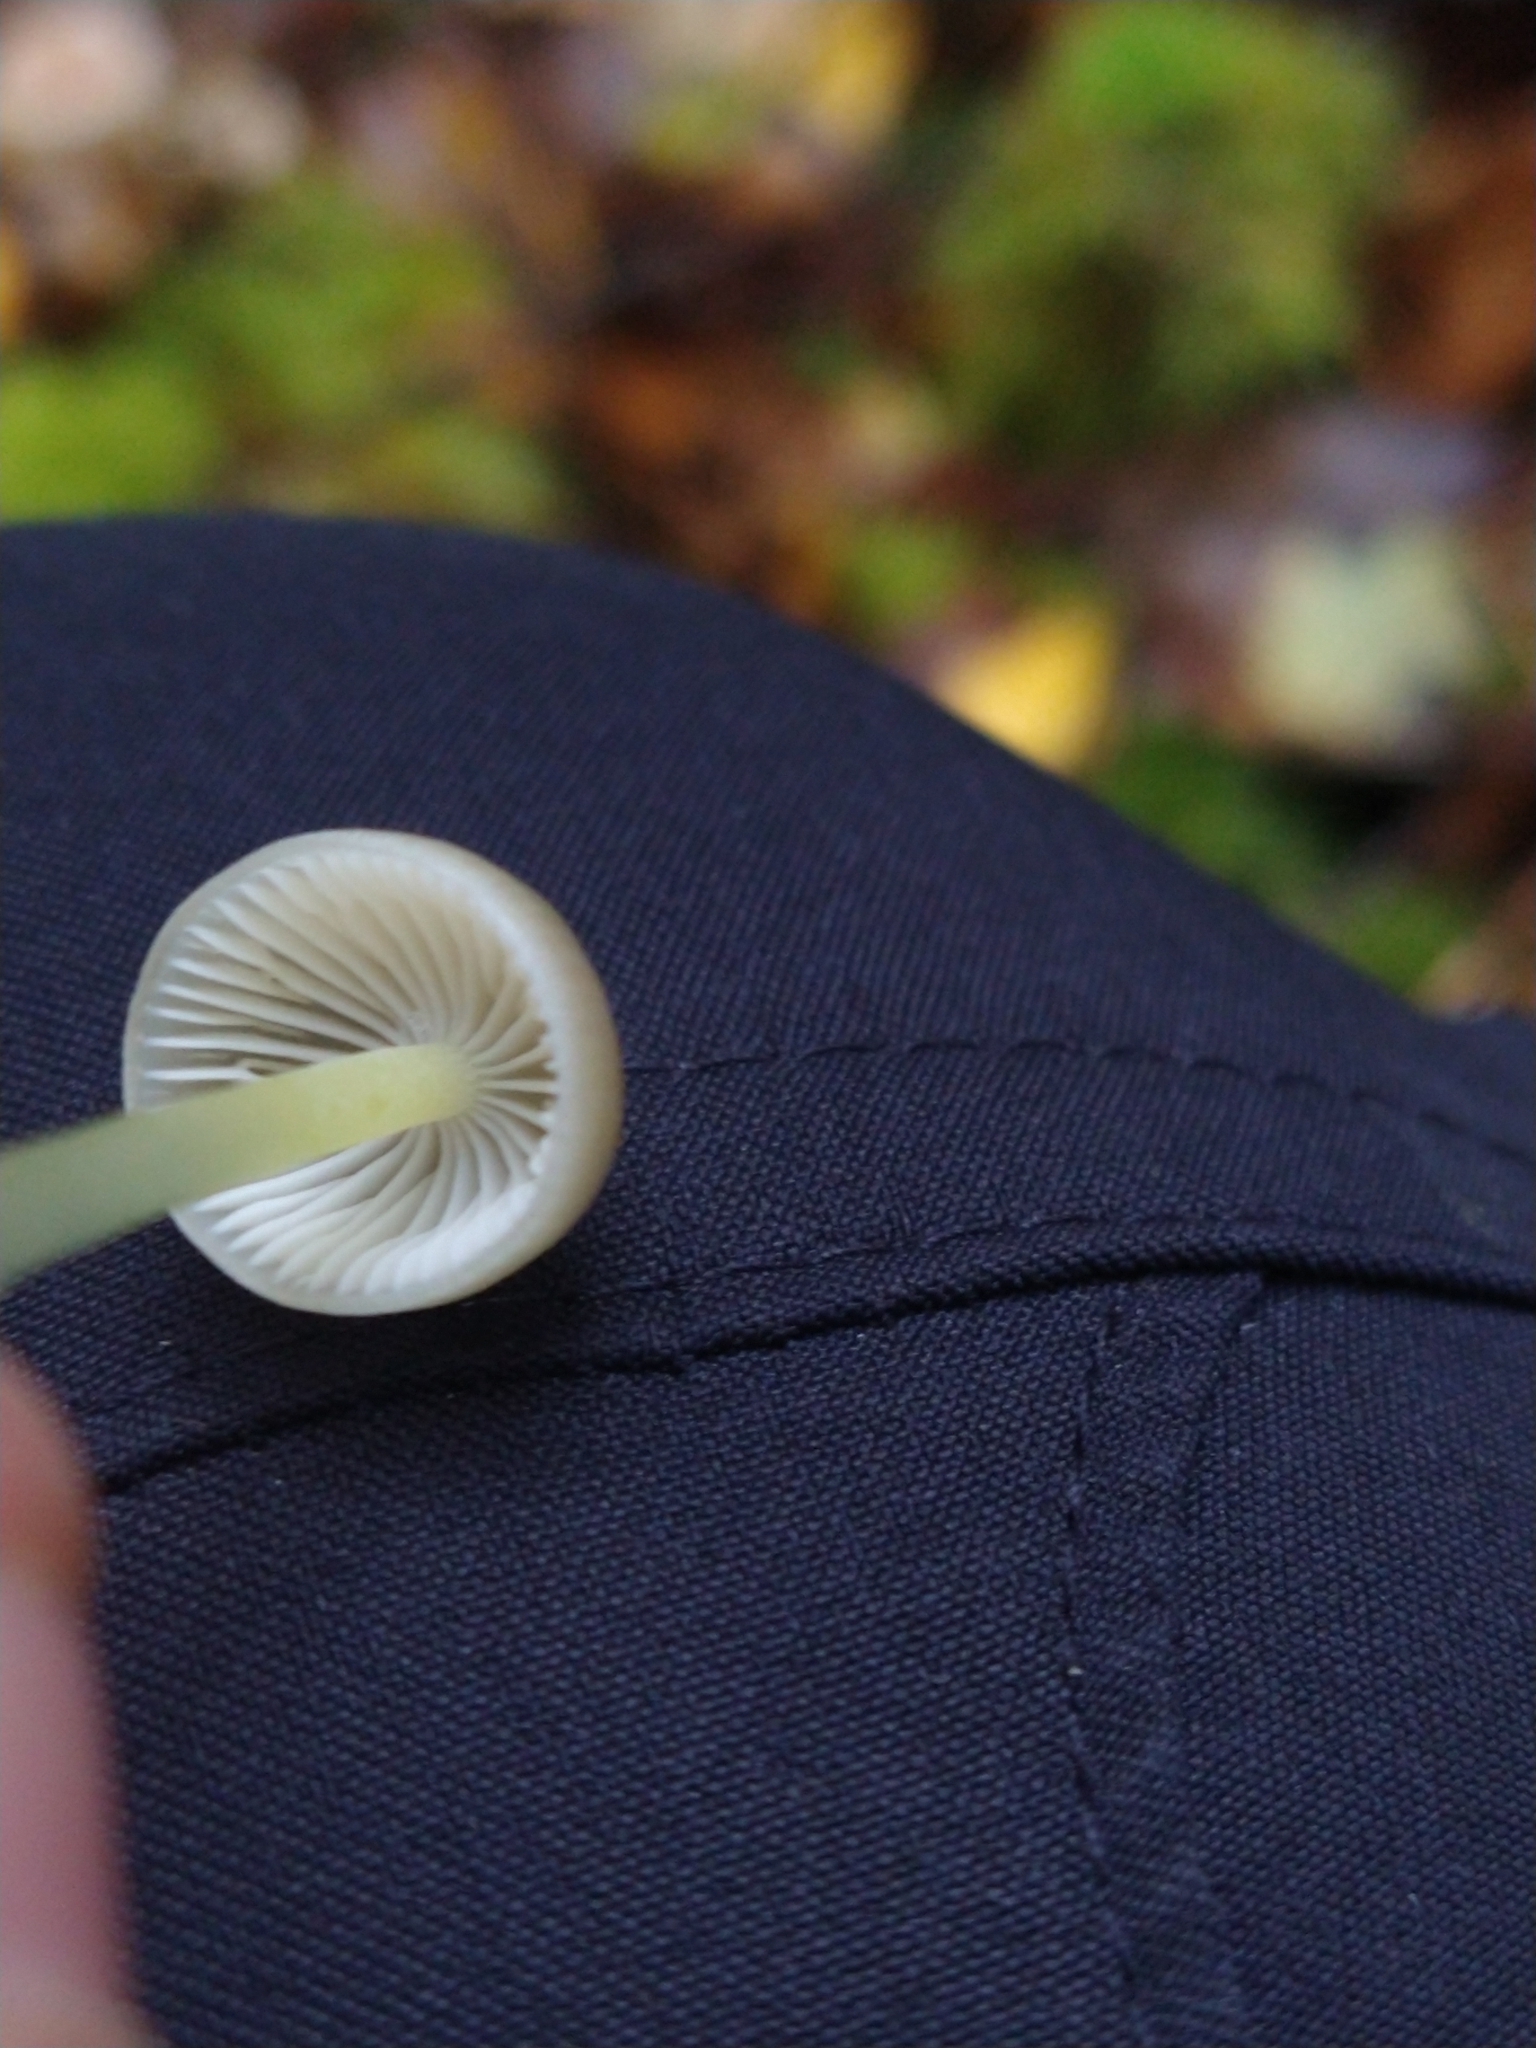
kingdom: Fungi
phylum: Basidiomycota
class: Agaricomycetes
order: Agaricales
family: Mycenaceae
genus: Mycena
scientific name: Mycena epipterygia
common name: Yellowleg bonnet
